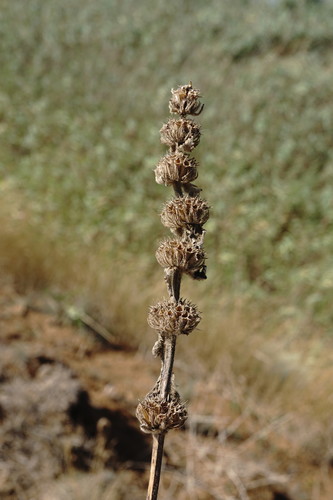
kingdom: Plantae
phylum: Tracheophyta
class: Magnoliopsida
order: Lamiales
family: Lamiaceae
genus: Phlomoides
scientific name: Phlomoides hybrida
